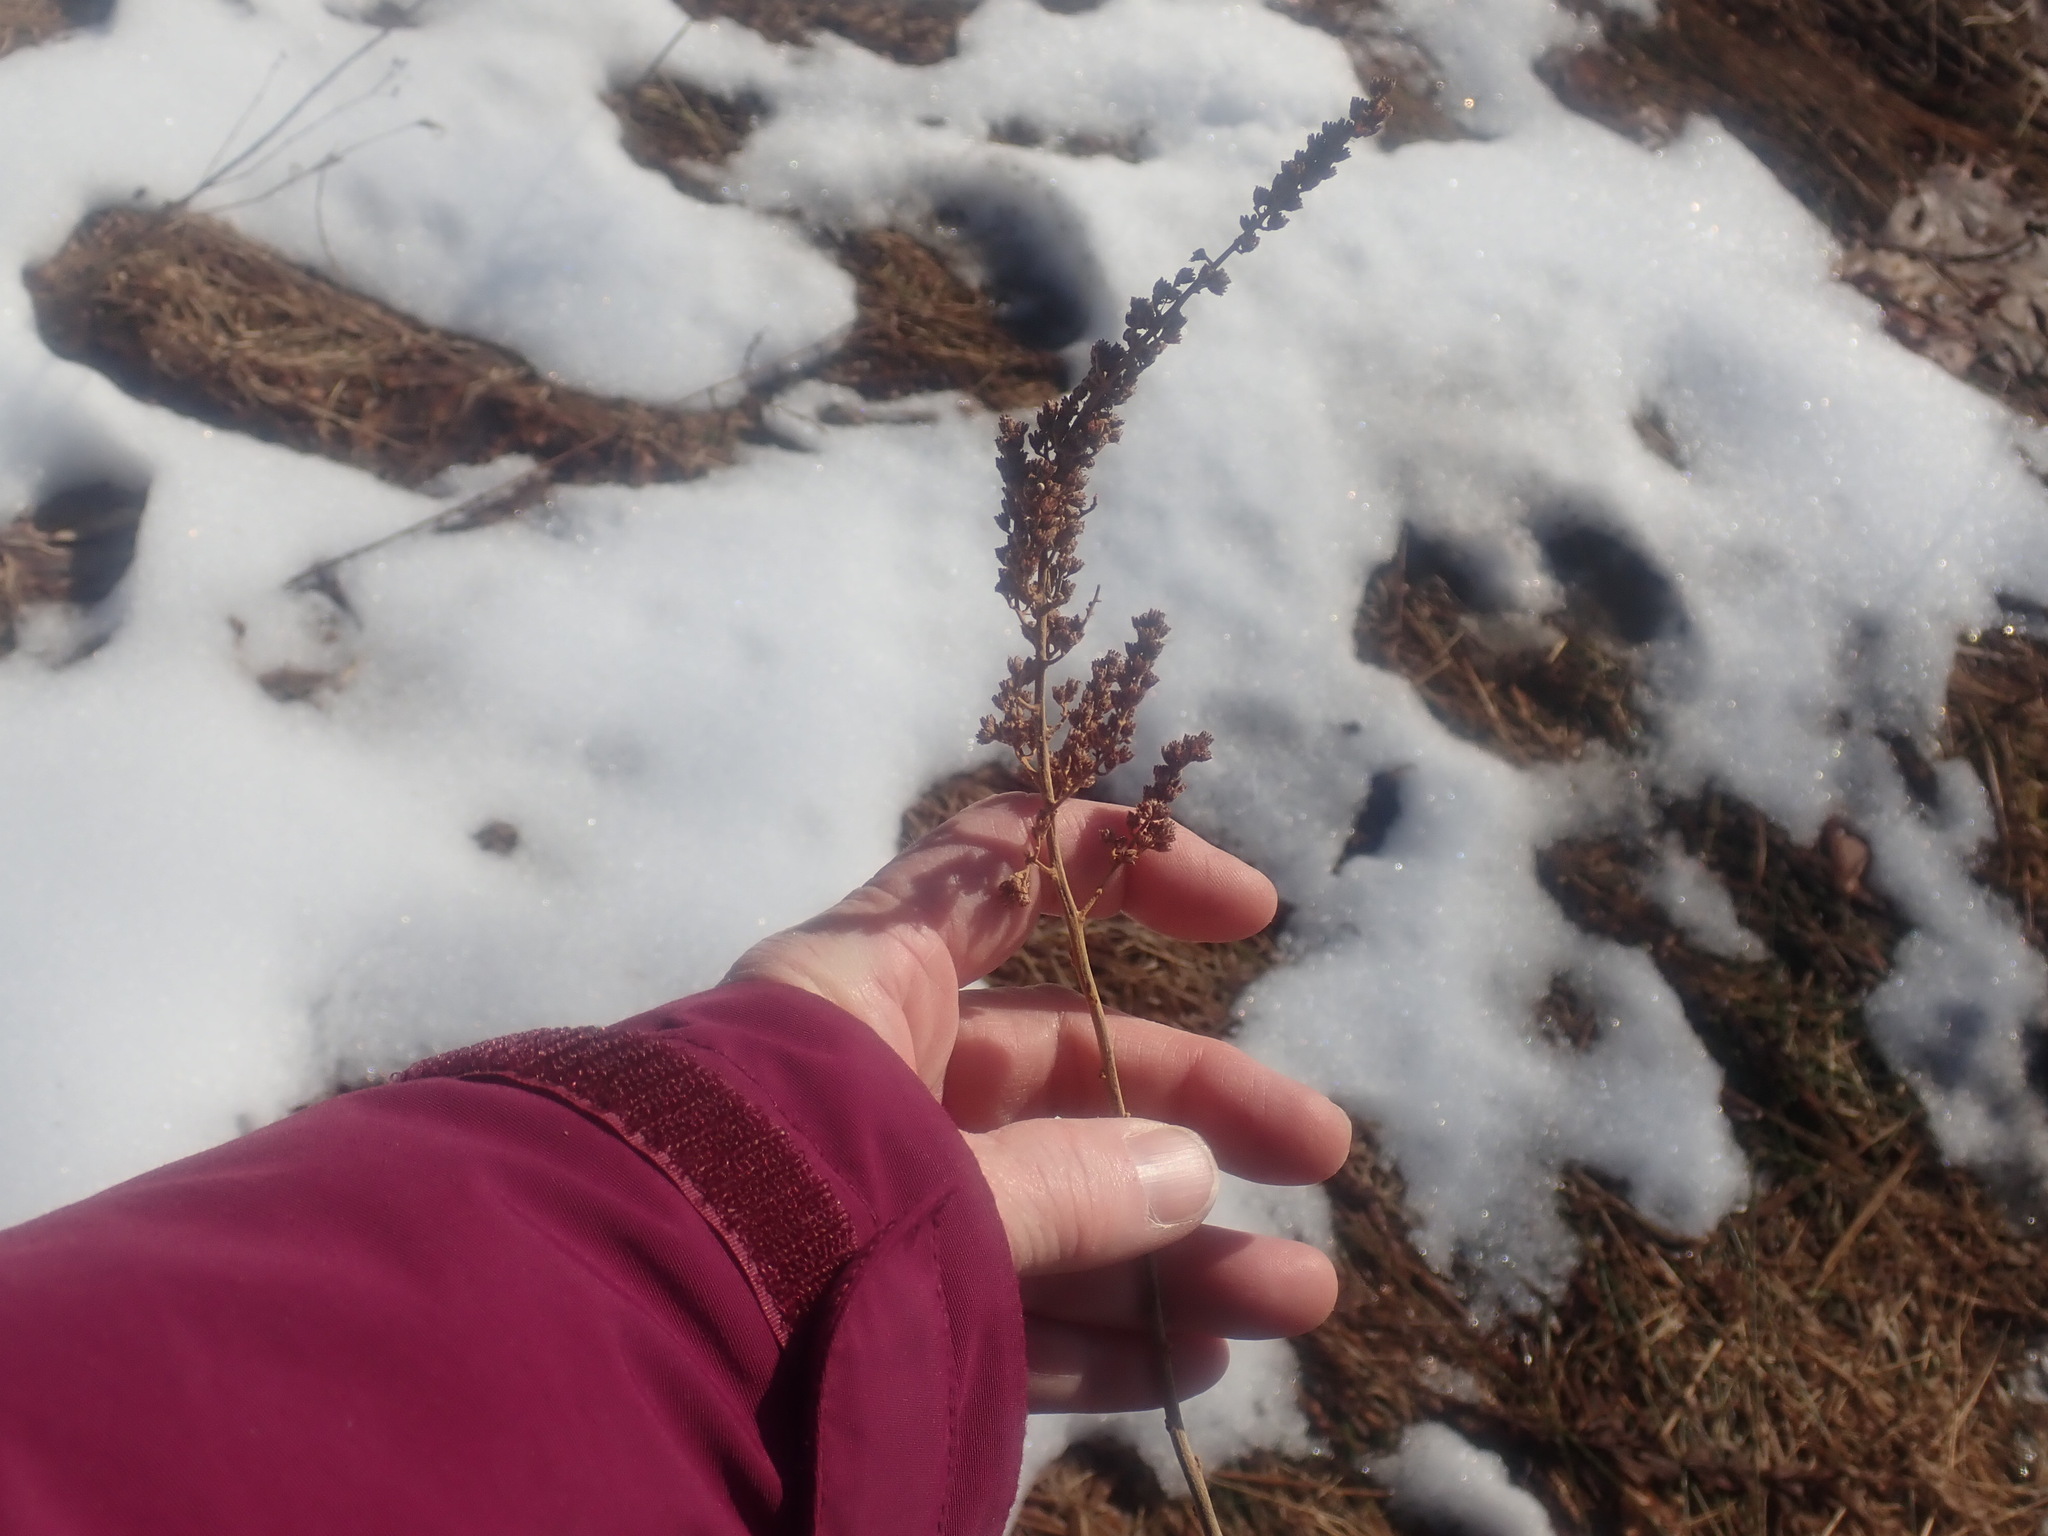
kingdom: Plantae
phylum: Tracheophyta
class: Magnoliopsida
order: Rosales
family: Rosaceae
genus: Spiraea
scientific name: Spiraea tomentosa
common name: Hardhack
